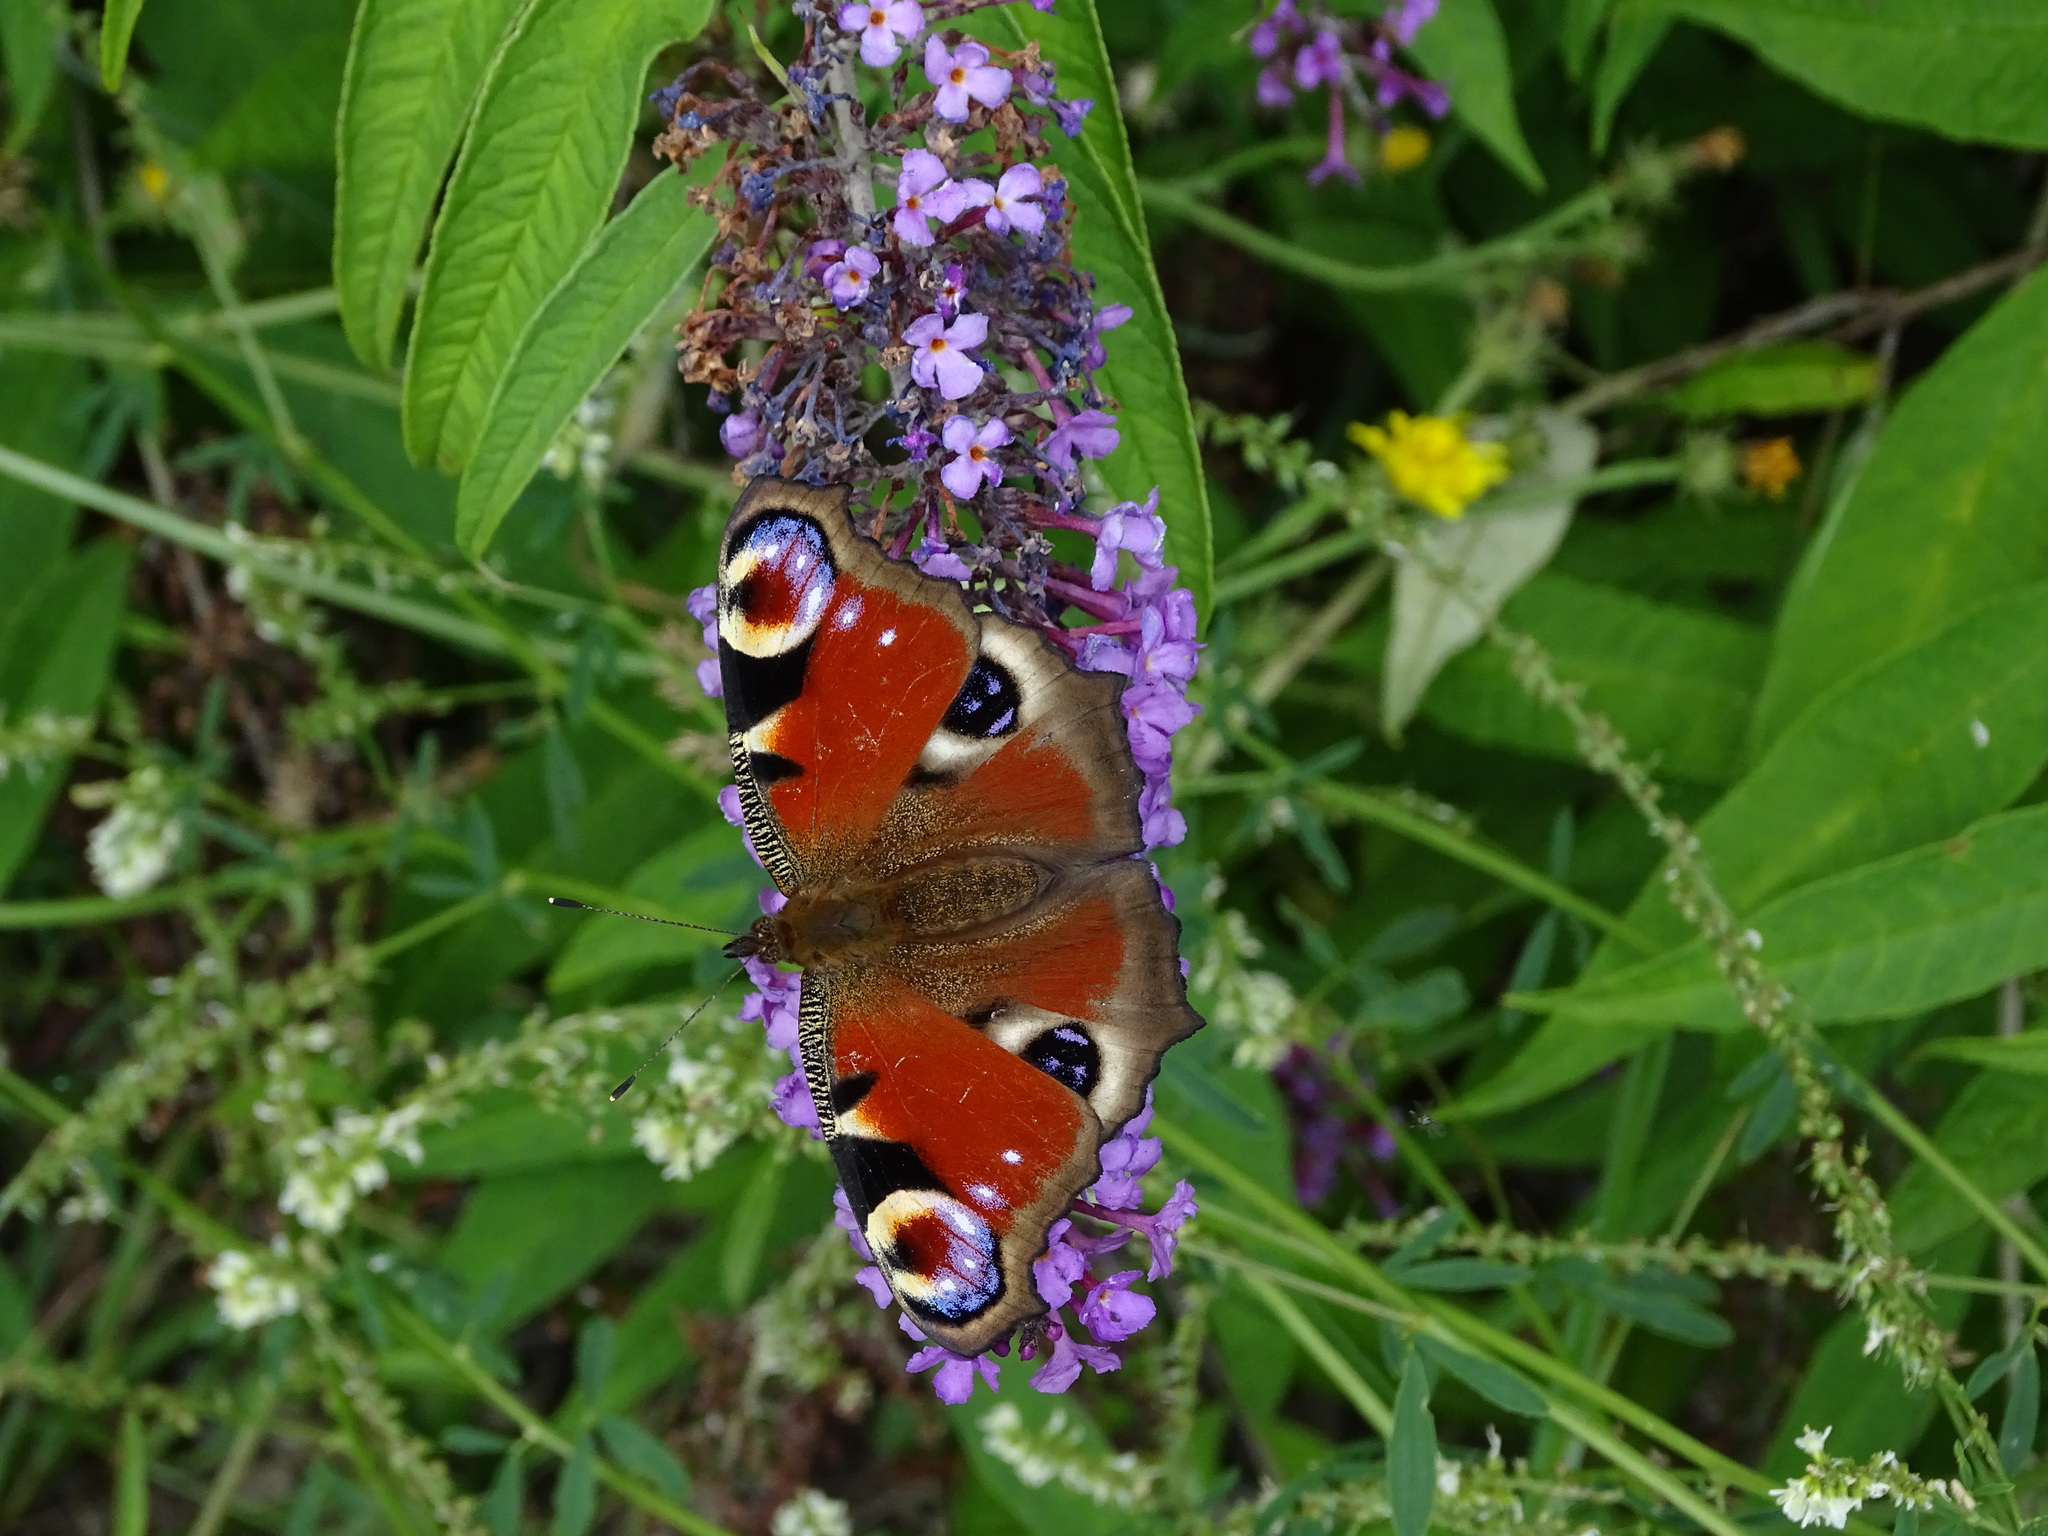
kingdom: Animalia
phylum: Arthropoda
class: Insecta
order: Lepidoptera
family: Nymphalidae
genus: Aglais
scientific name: Aglais io
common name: Peacock
